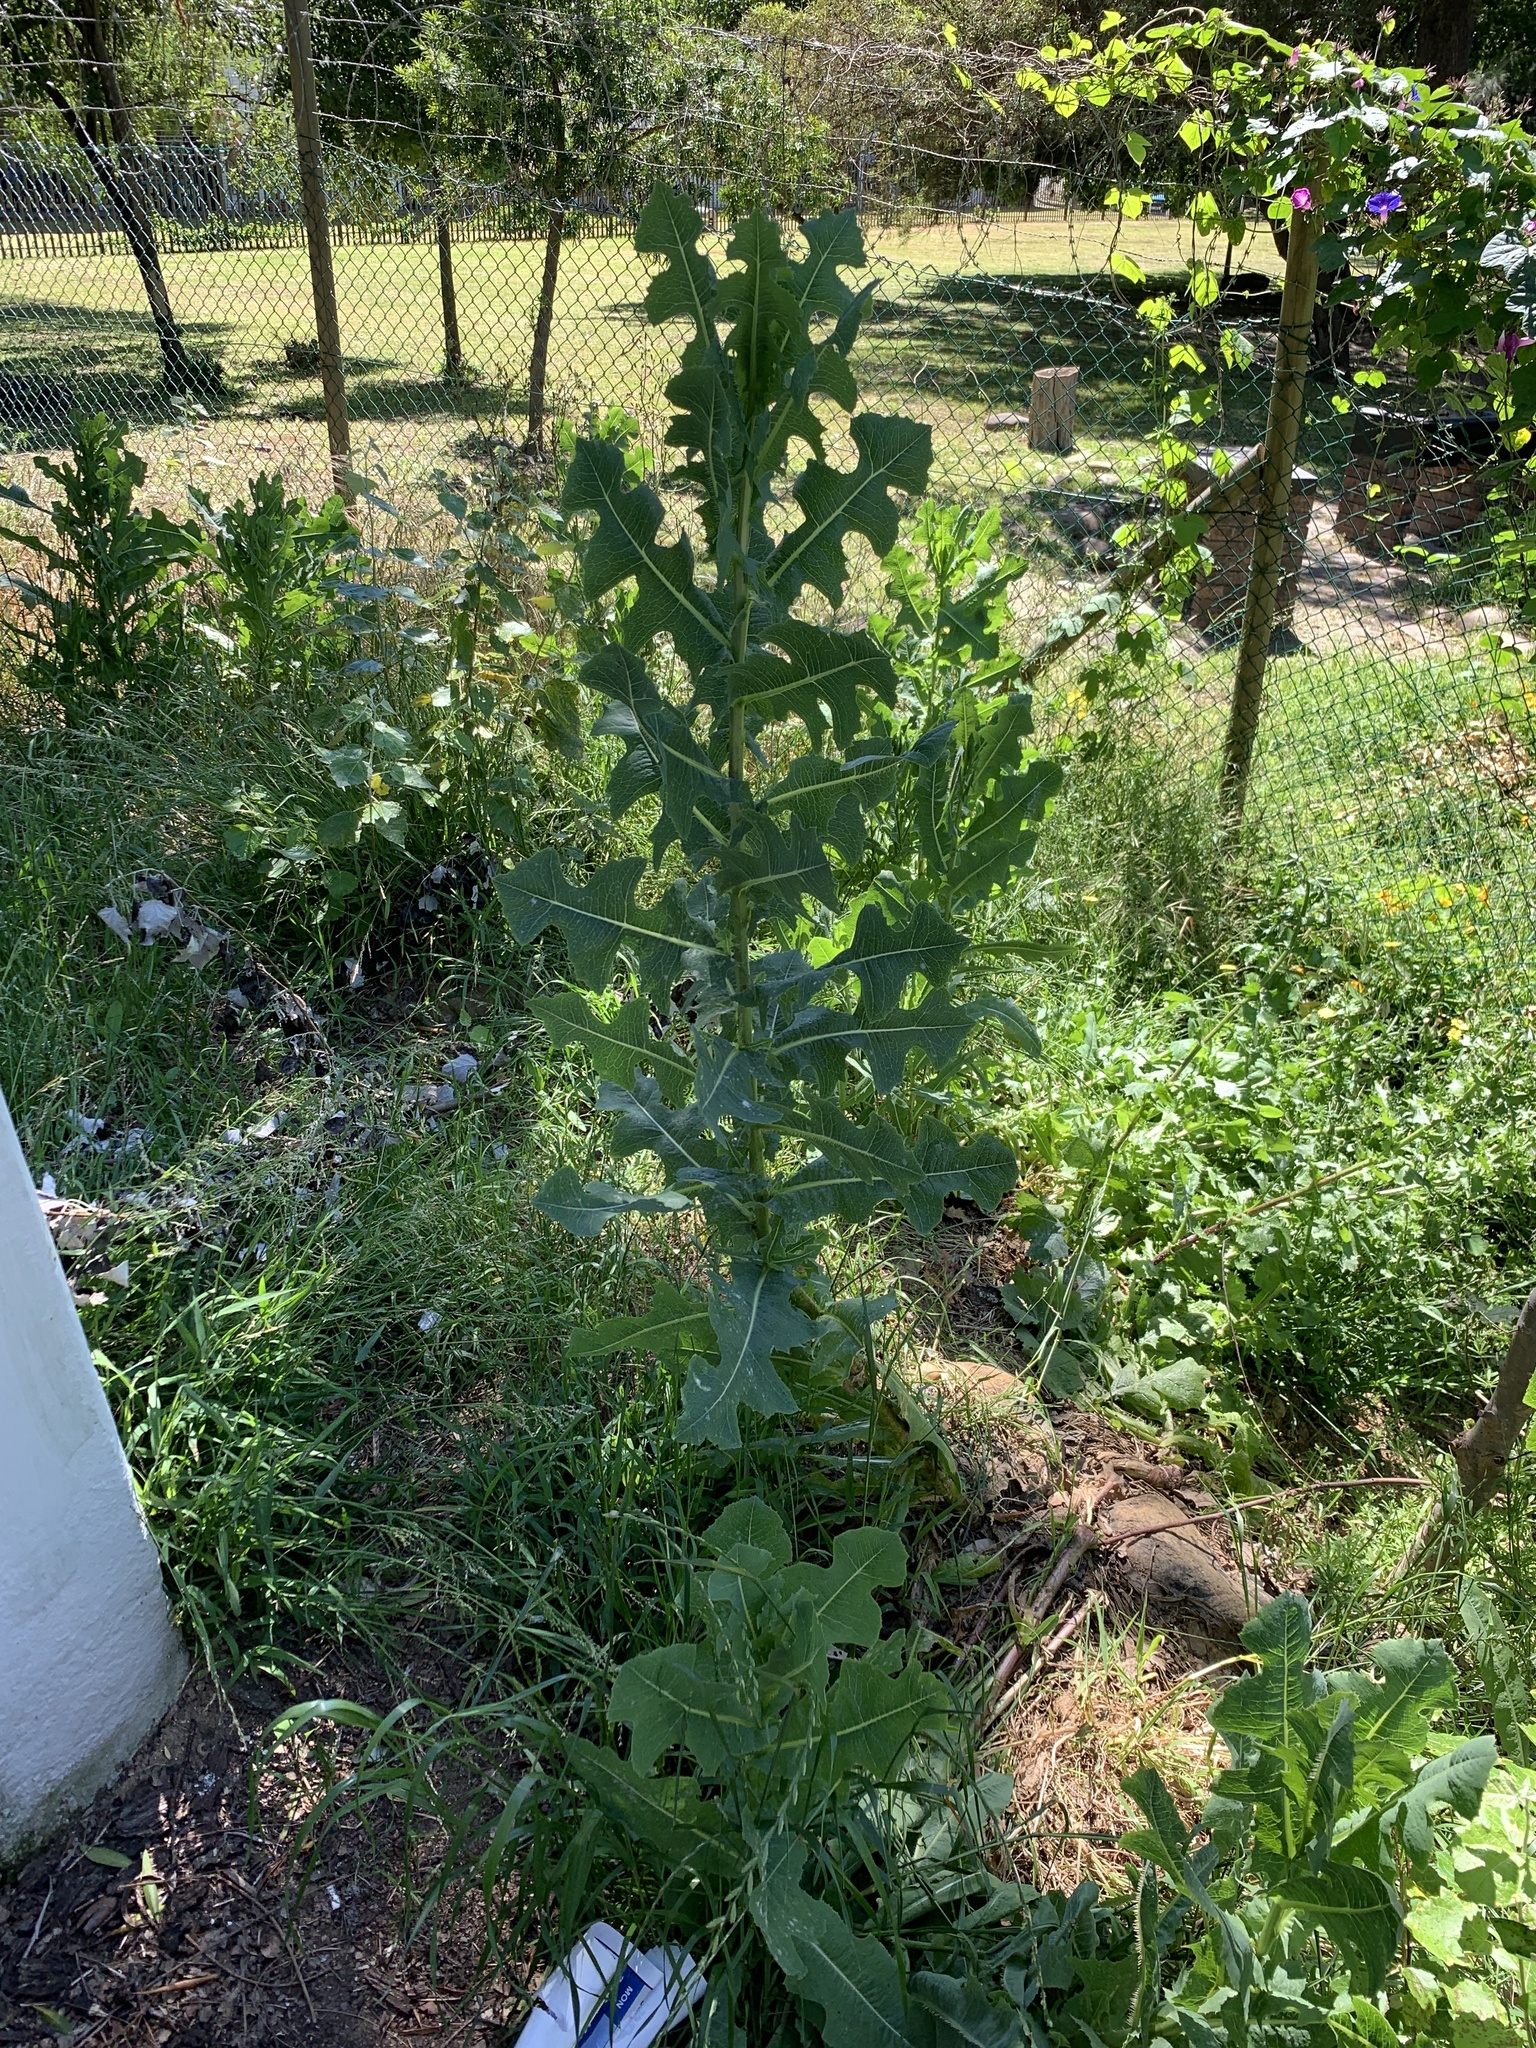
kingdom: Plantae
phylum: Tracheophyta
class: Magnoliopsida
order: Asterales
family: Asteraceae
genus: Lactuca
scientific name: Lactuca serriola
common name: Prickly lettuce
